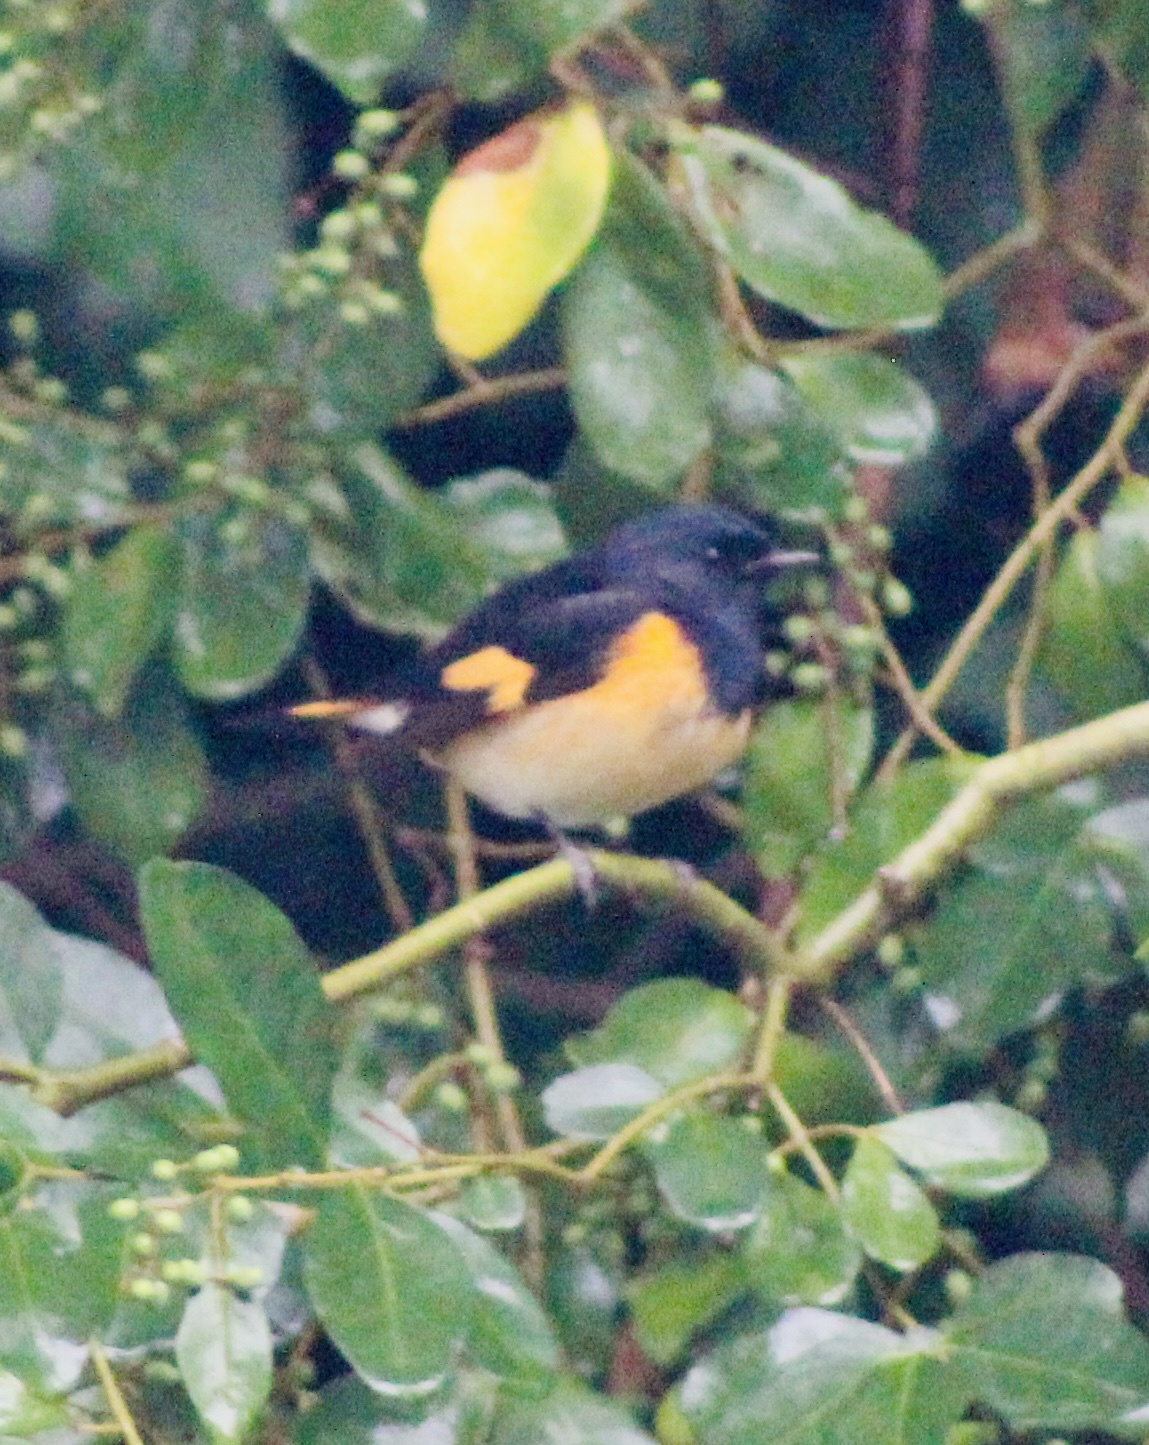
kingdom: Animalia
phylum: Chordata
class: Aves
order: Passeriformes
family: Parulidae
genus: Setophaga
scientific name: Setophaga ruticilla
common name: American redstart
